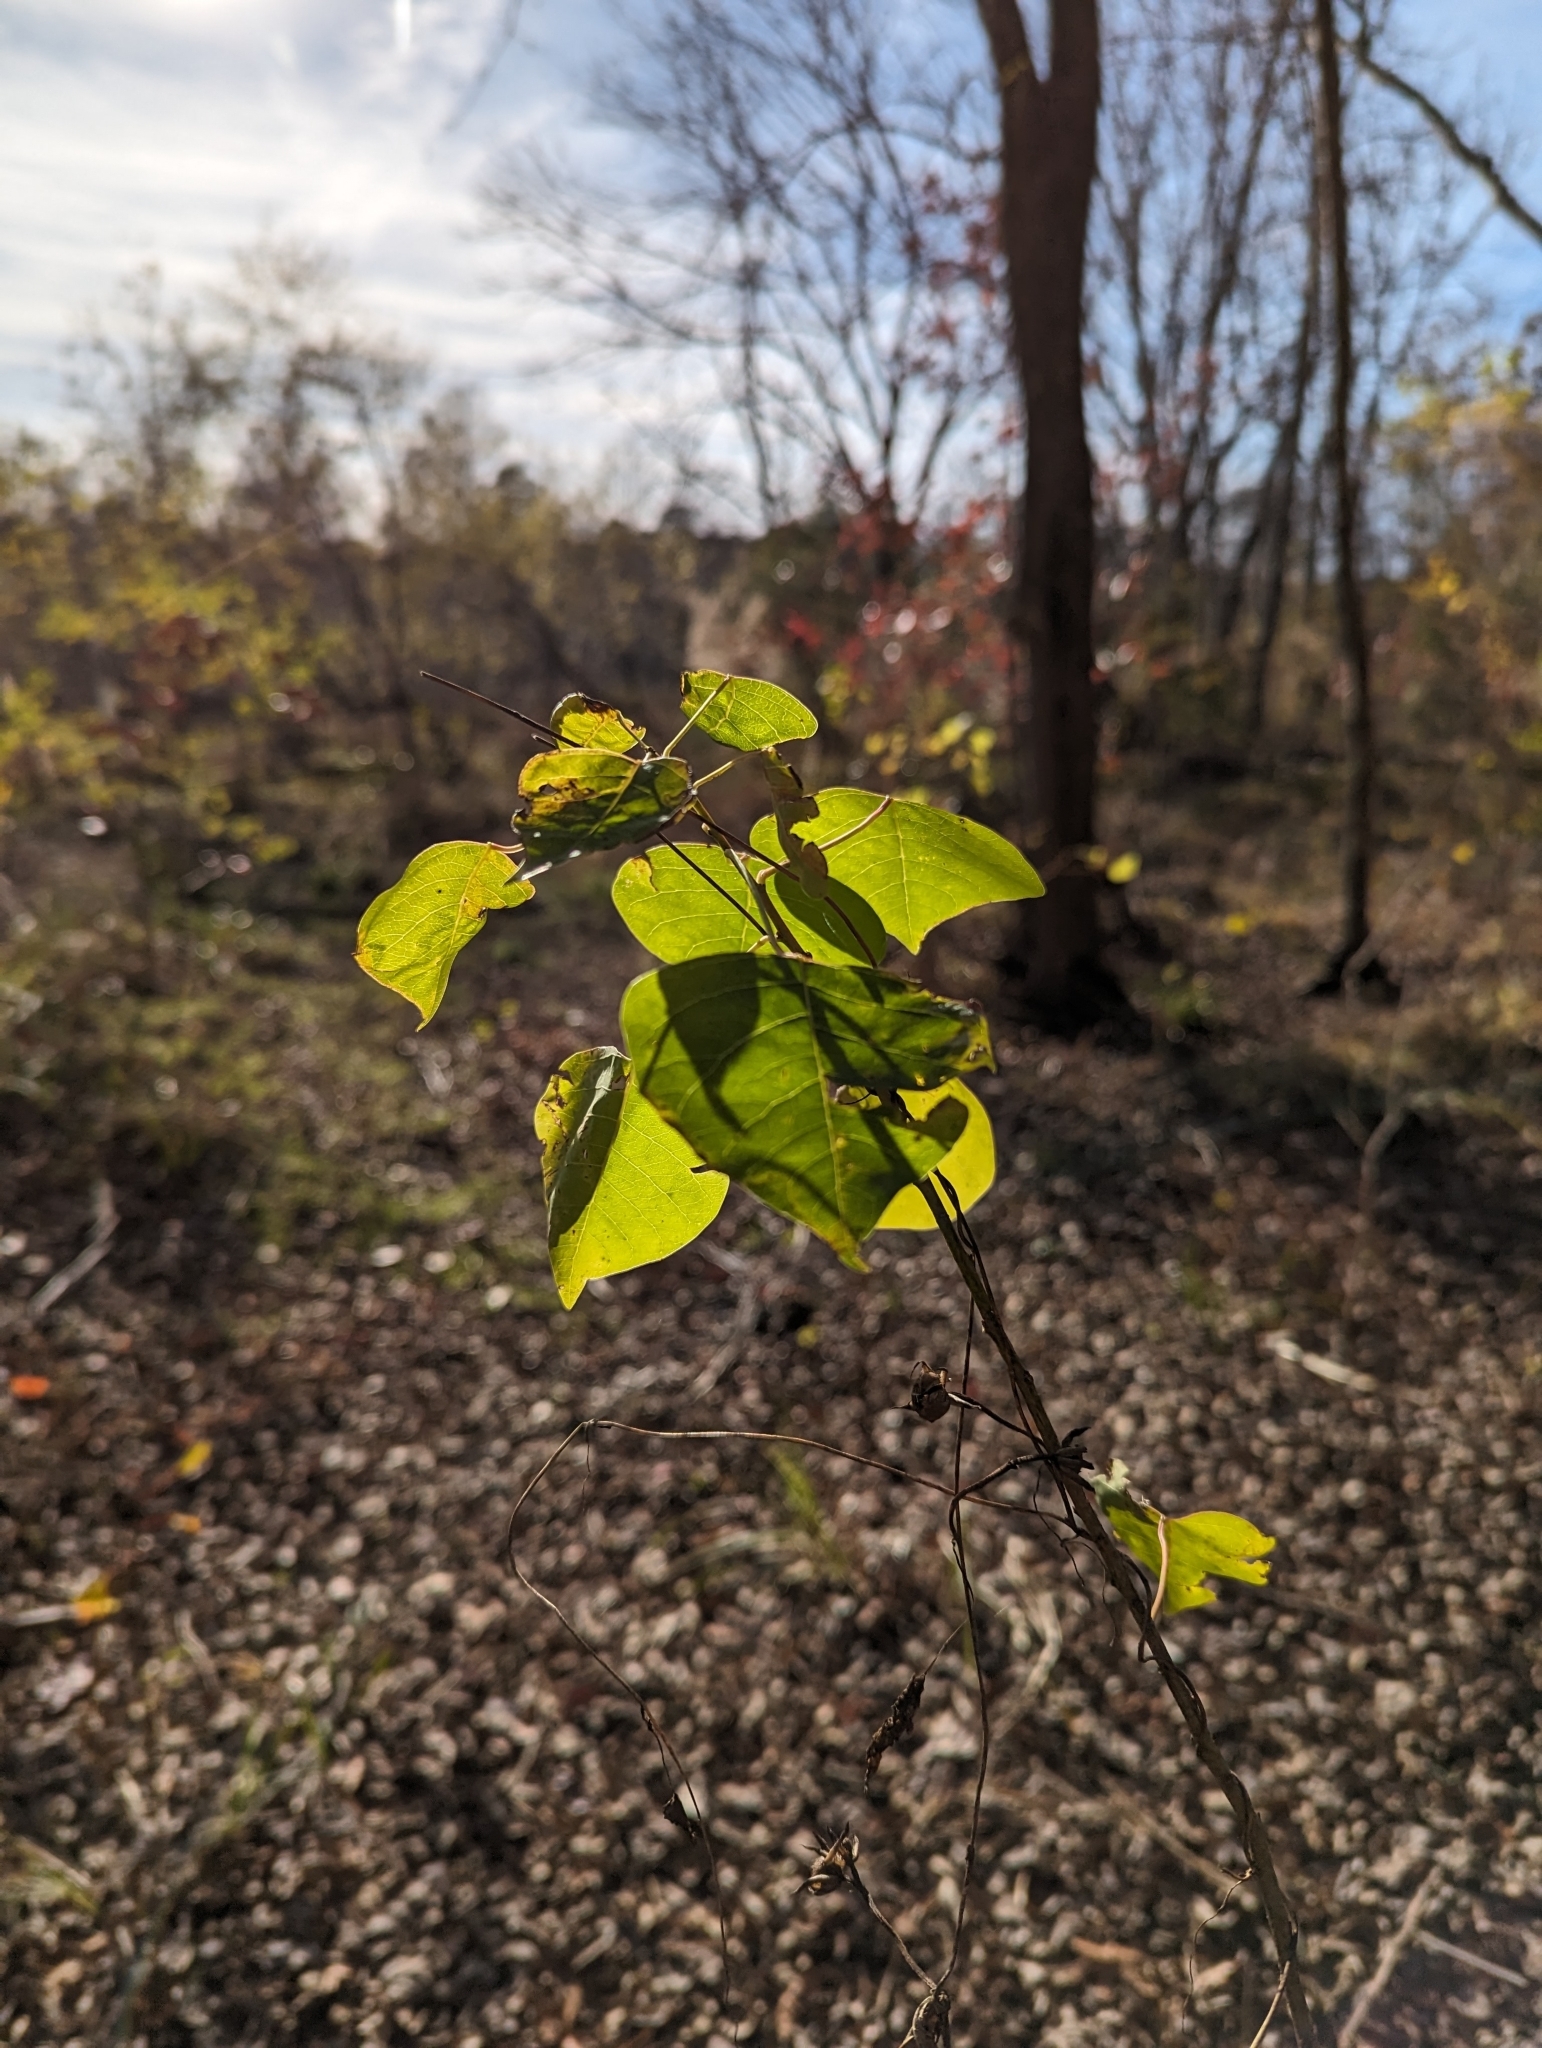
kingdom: Plantae
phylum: Tracheophyta
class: Magnoliopsida
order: Malpighiales
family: Euphorbiaceae
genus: Triadica
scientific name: Triadica sebifera
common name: Chinese tallow
